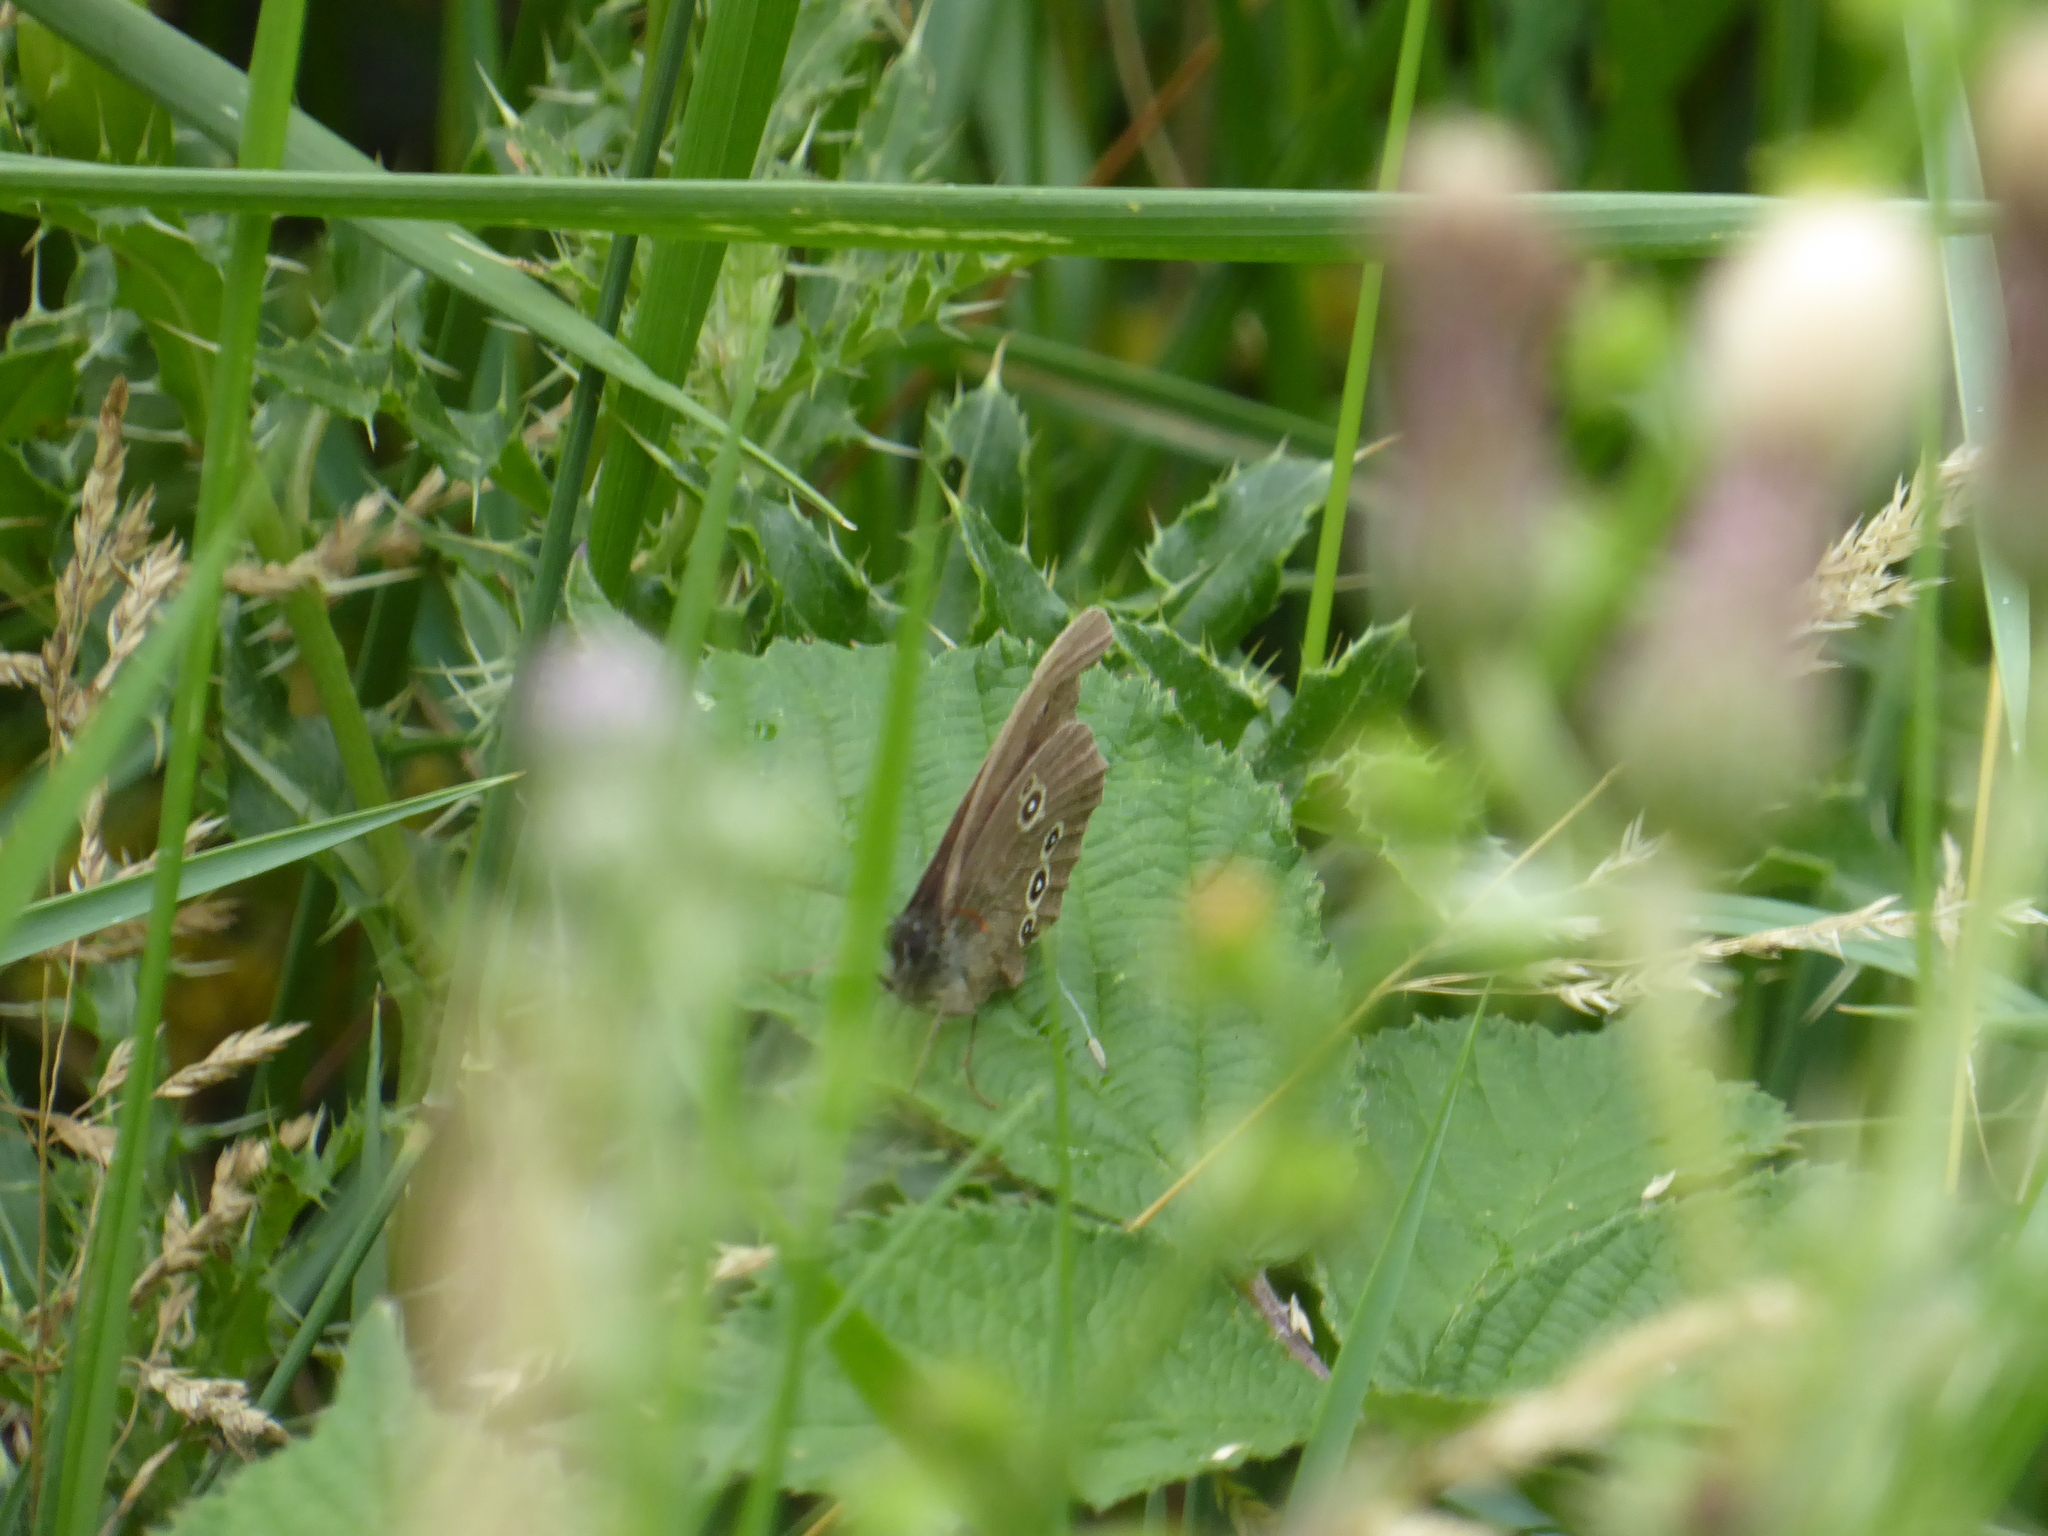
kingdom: Animalia
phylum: Arthropoda
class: Insecta
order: Lepidoptera
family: Nymphalidae
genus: Aphantopus
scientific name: Aphantopus hyperantus
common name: Ringlet
